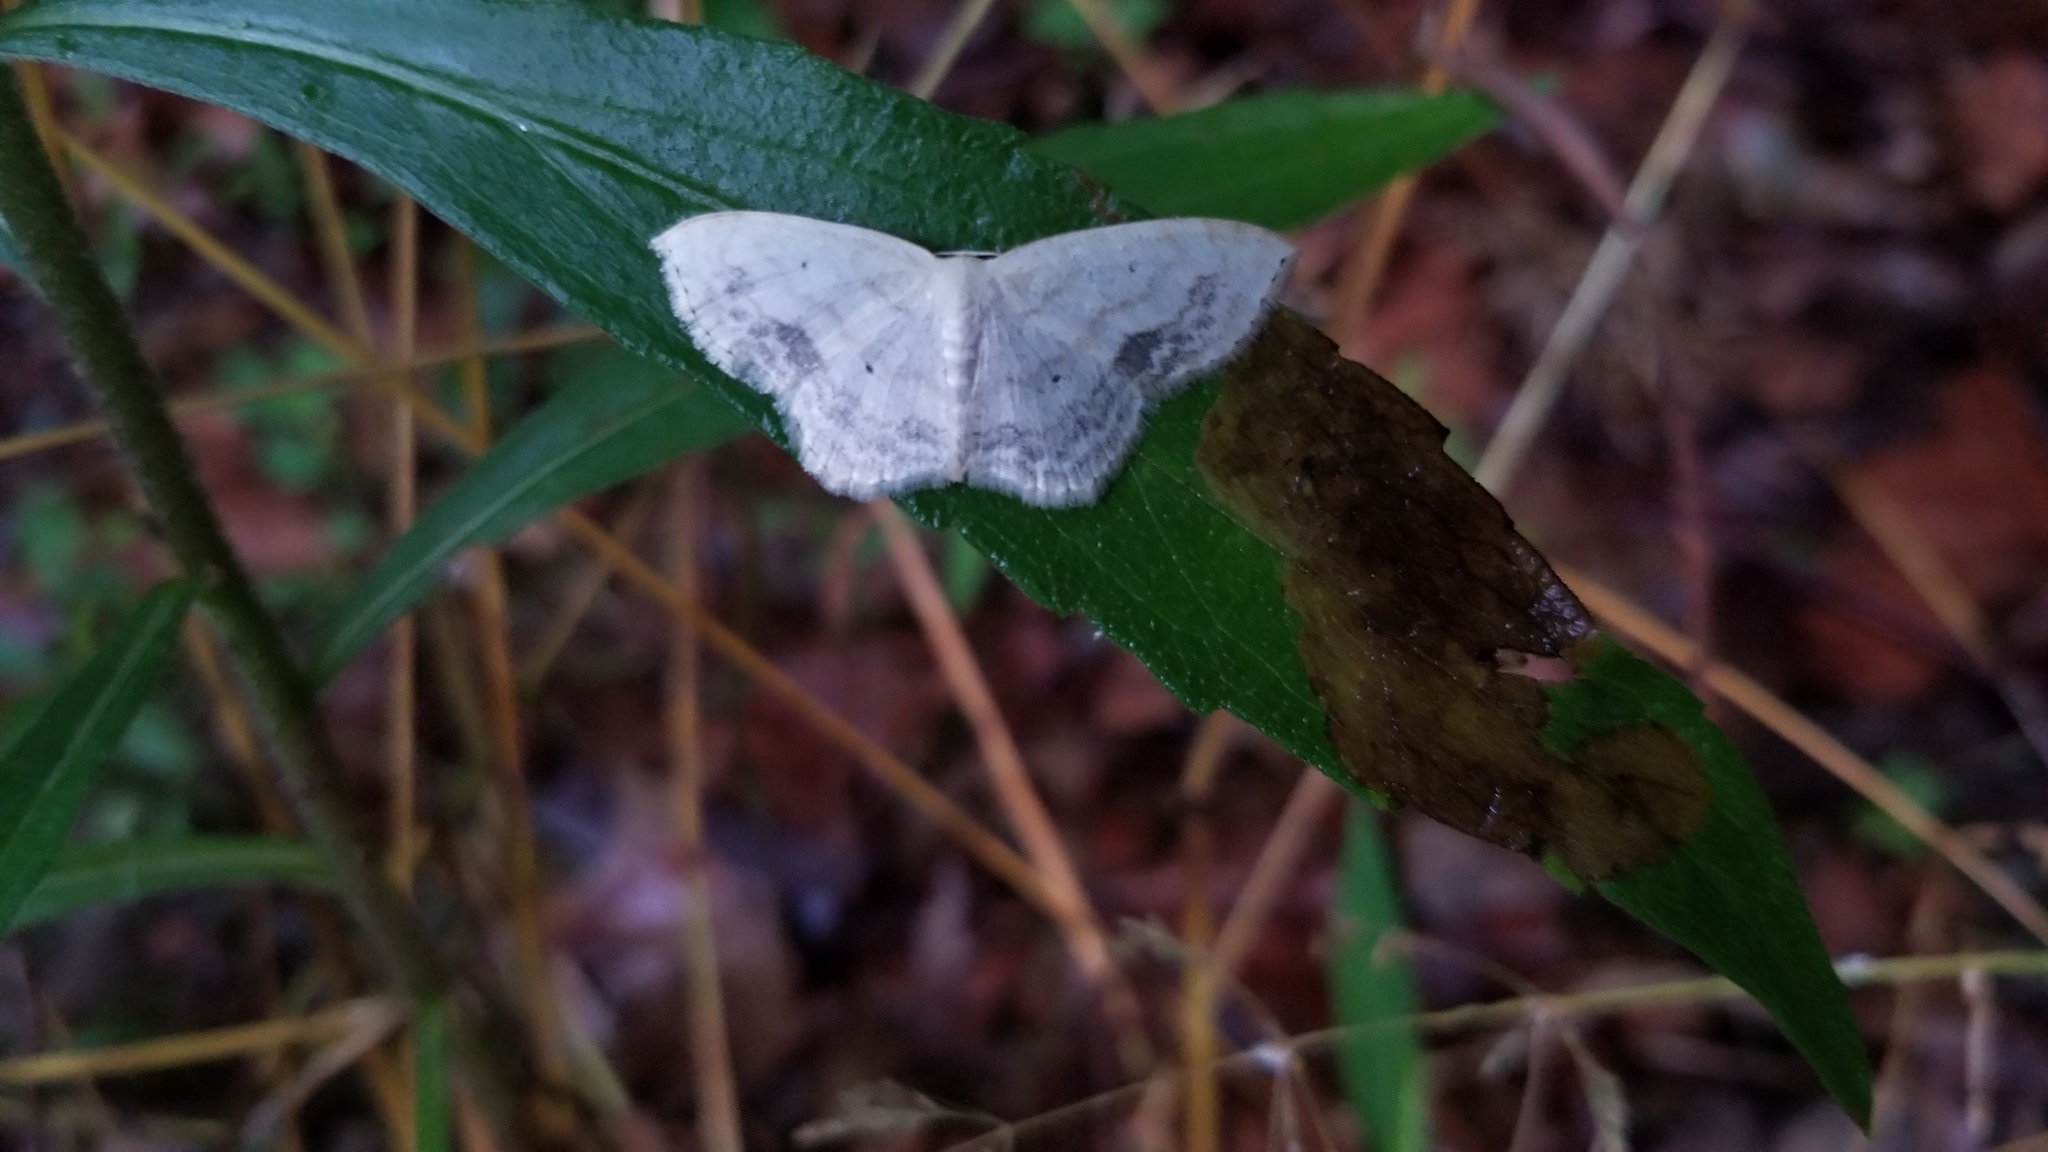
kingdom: Animalia
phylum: Arthropoda
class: Insecta
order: Lepidoptera
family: Geometridae
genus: Scopula
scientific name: Scopula limboundata
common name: Large lace border
